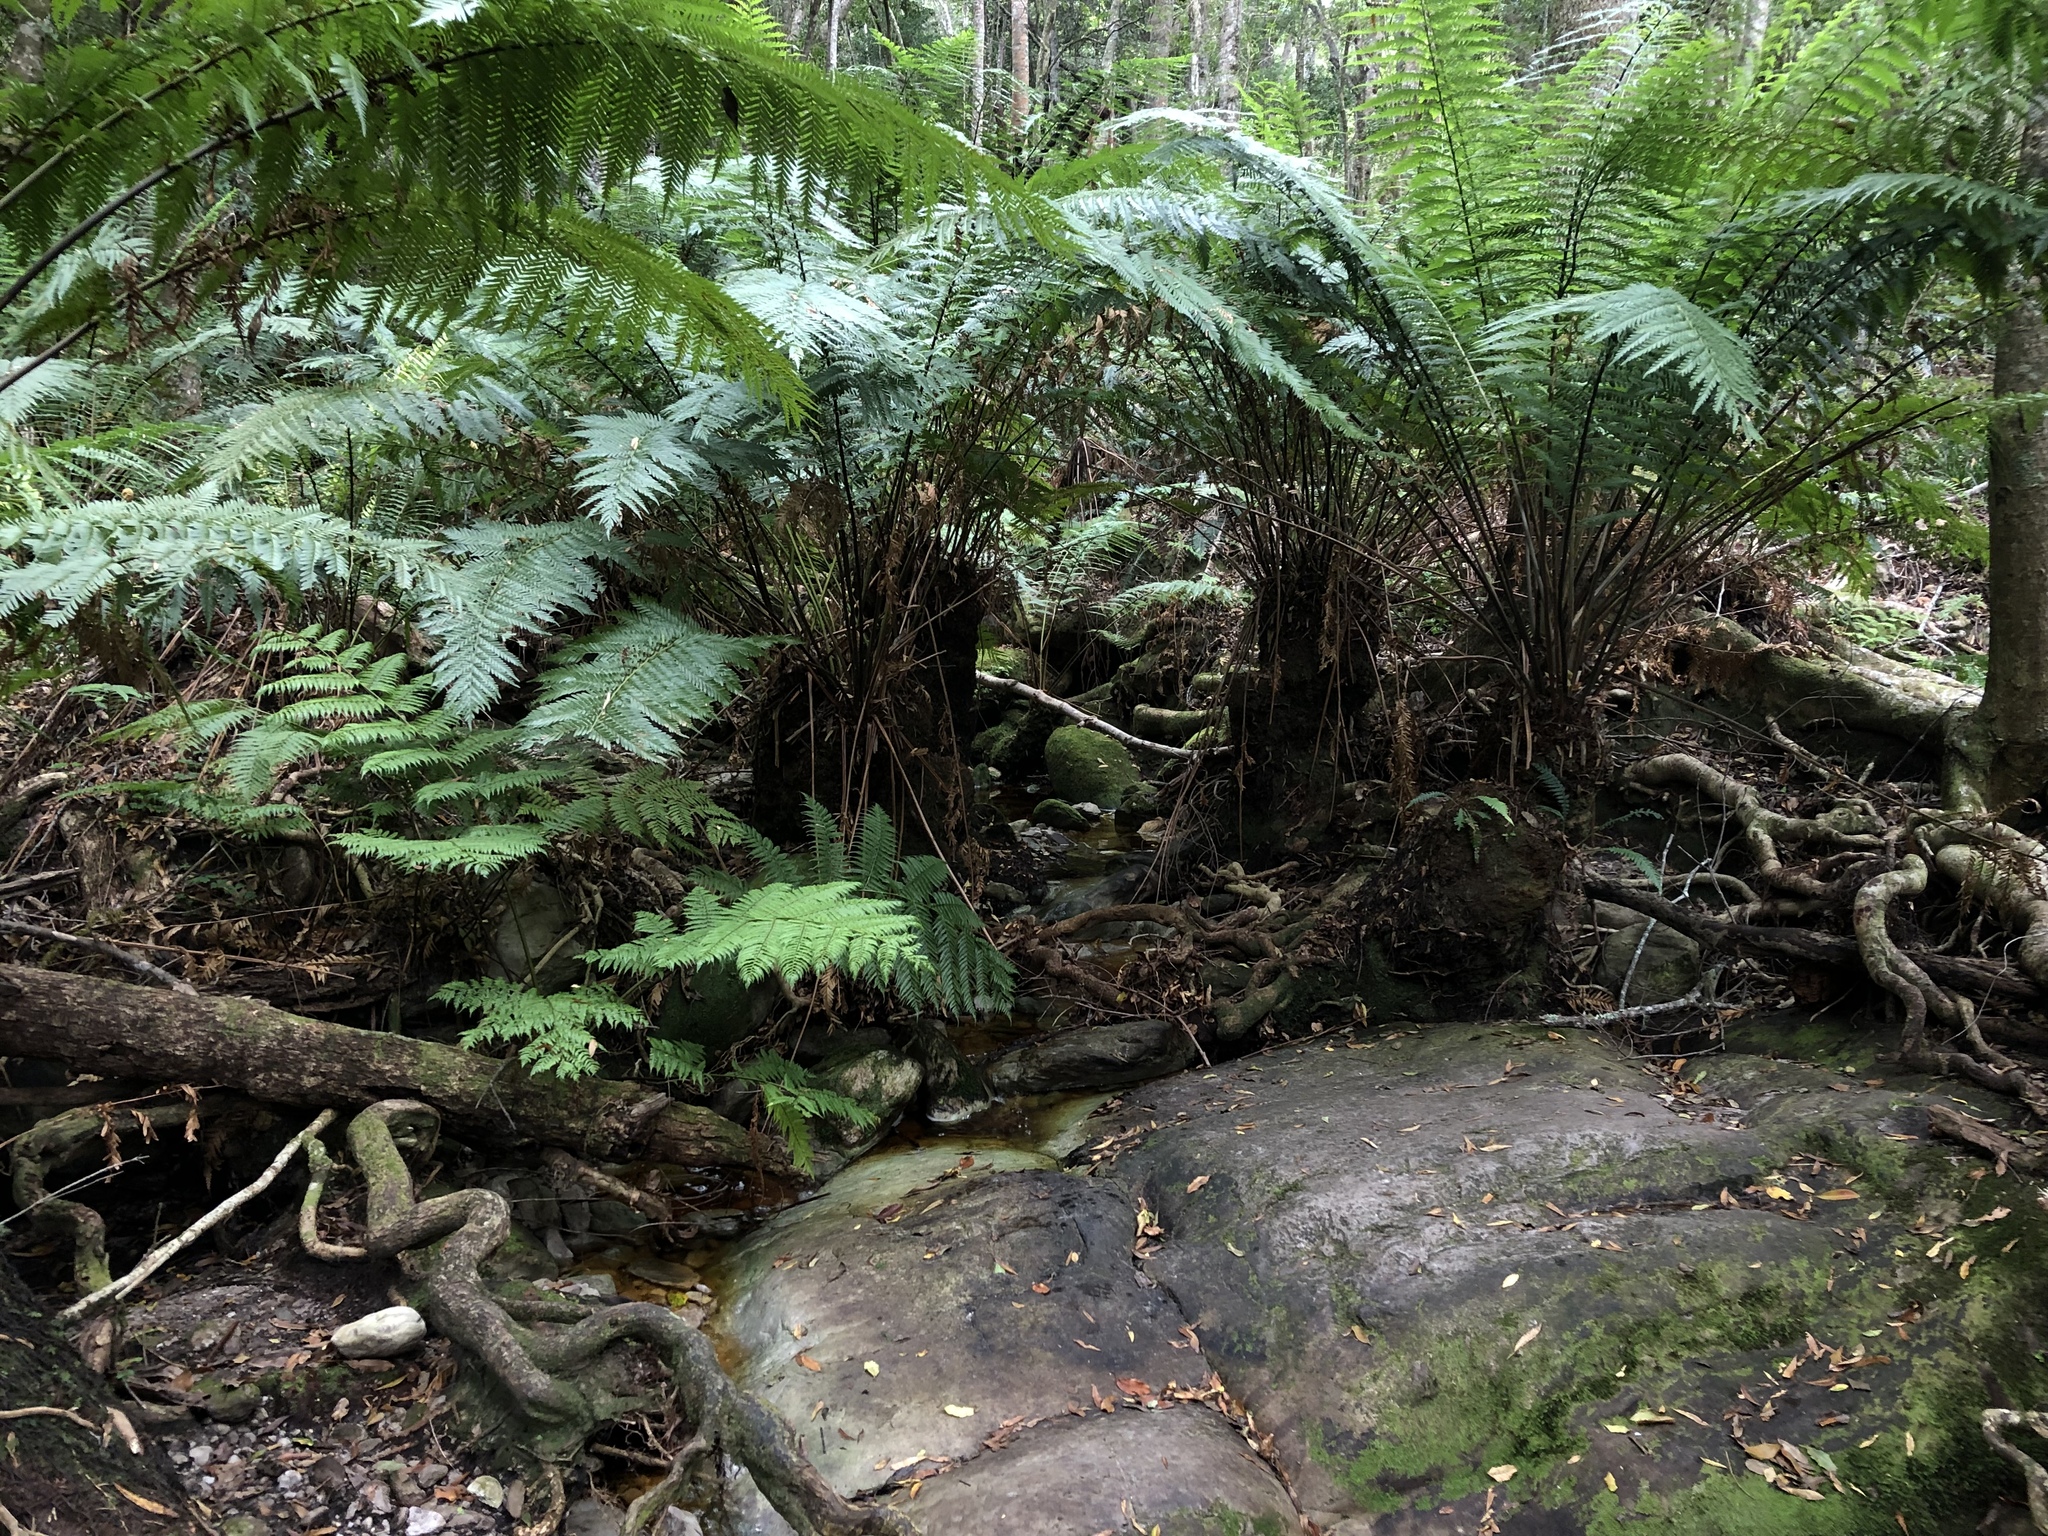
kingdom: Plantae
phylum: Tracheophyta
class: Polypodiopsida
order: Osmundales
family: Osmundaceae
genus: Todea
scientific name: Todea barbara
